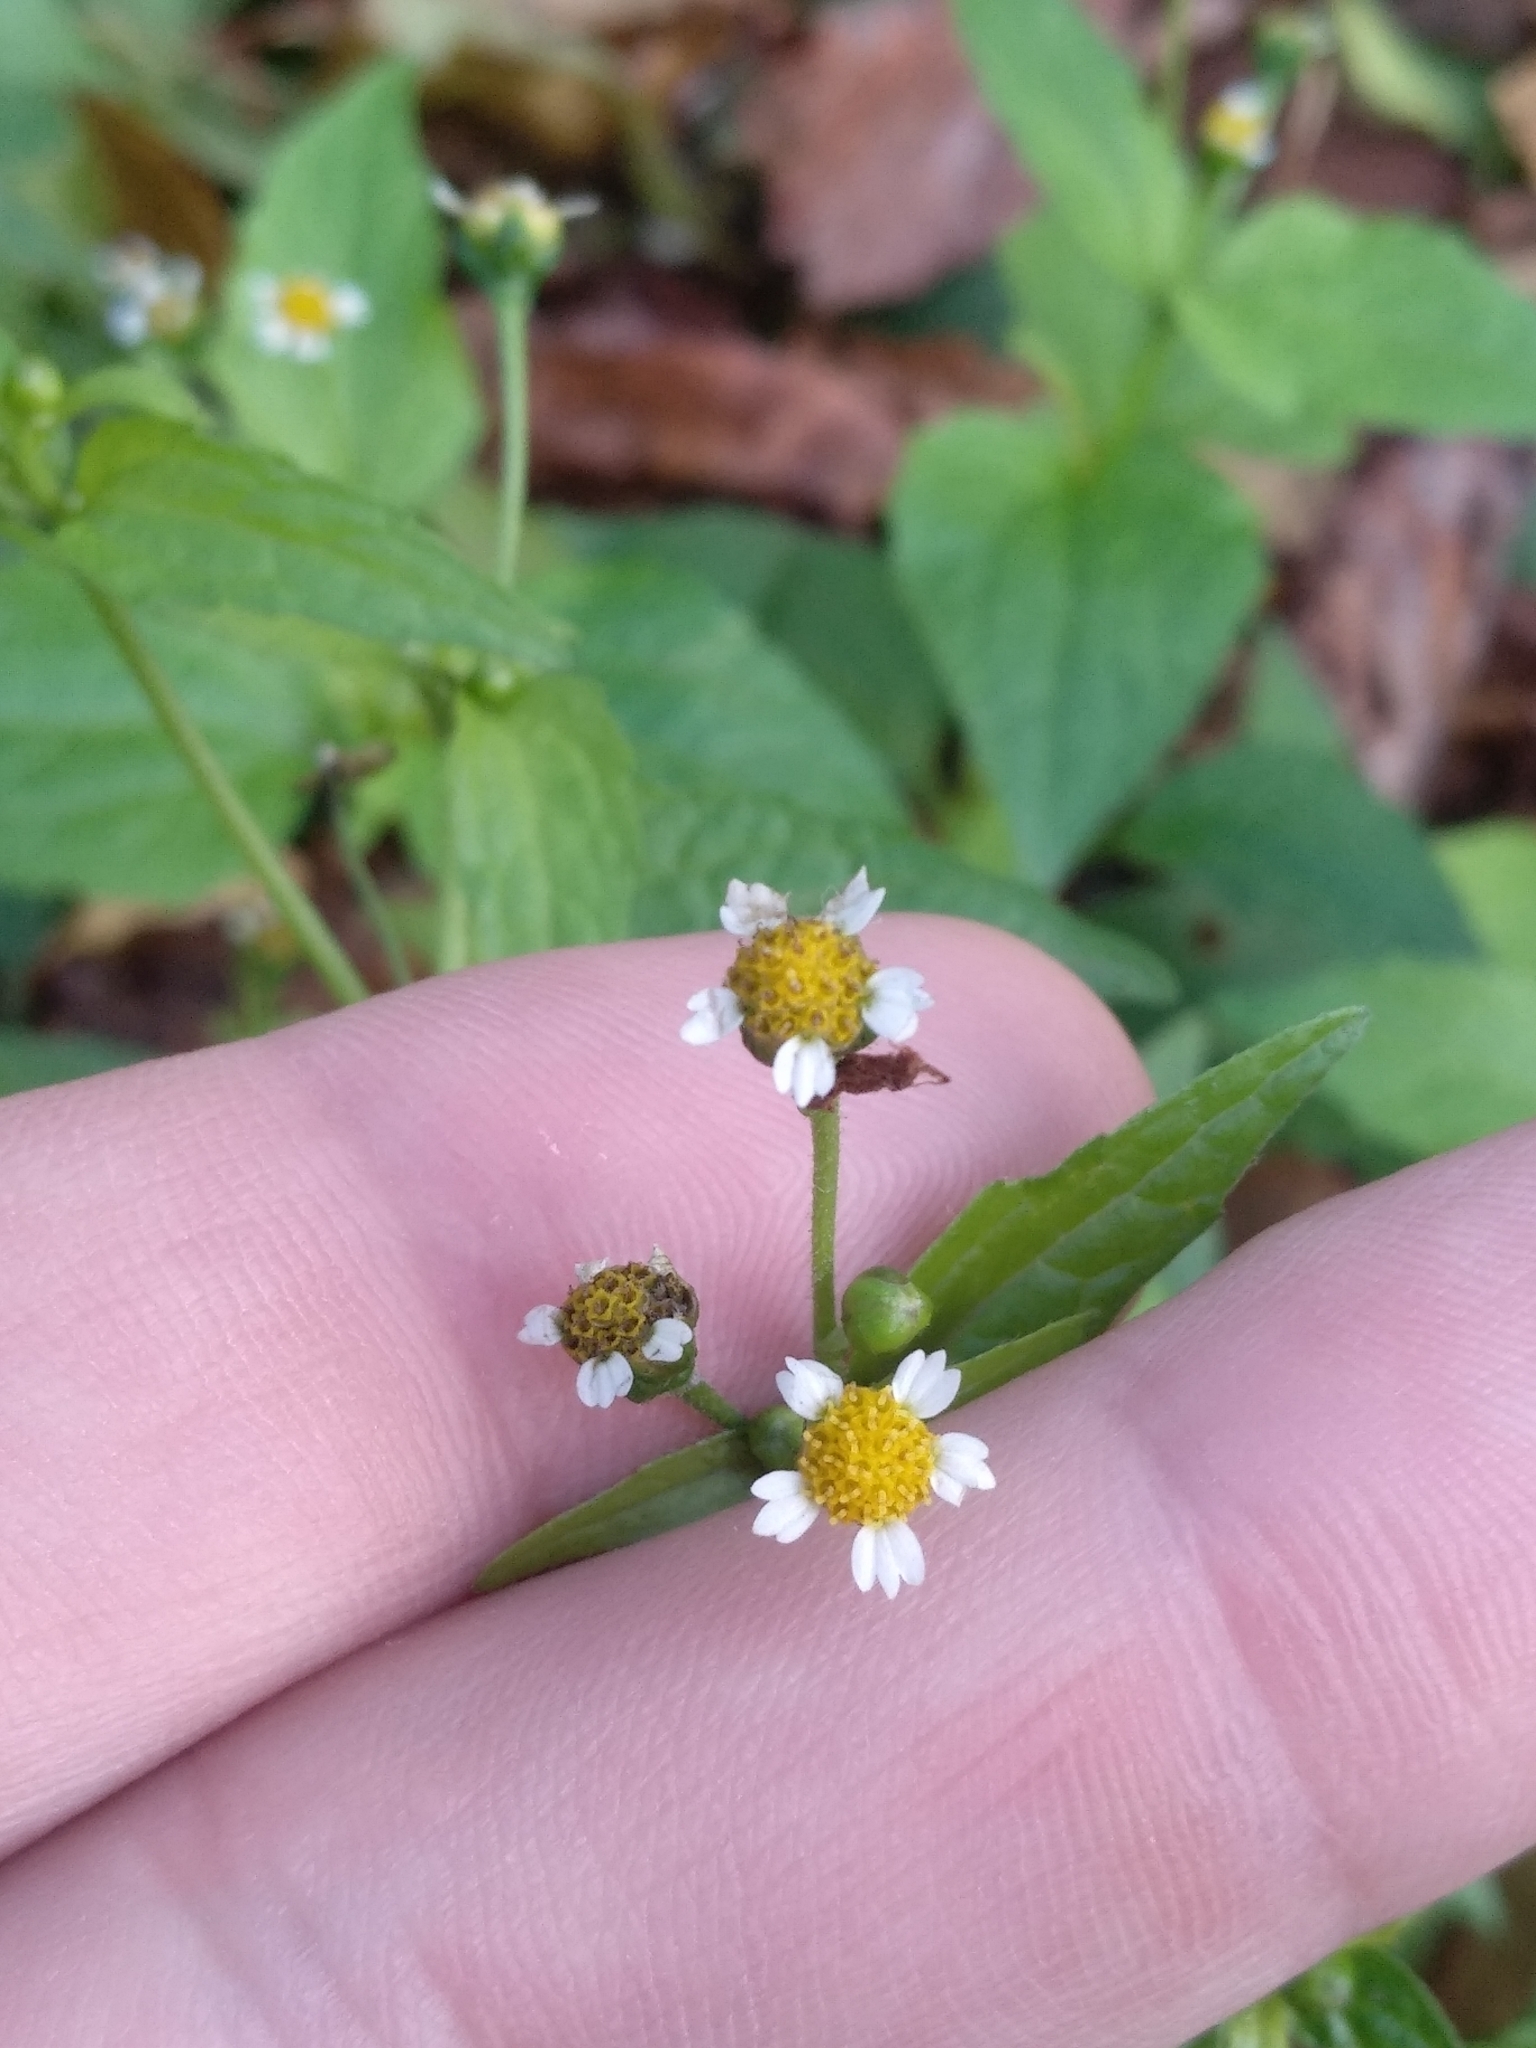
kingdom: Plantae
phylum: Tracheophyta
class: Magnoliopsida
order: Asterales
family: Asteraceae
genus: Galinsoga
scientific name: Galinsoga parviflora
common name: Gallant soldier
